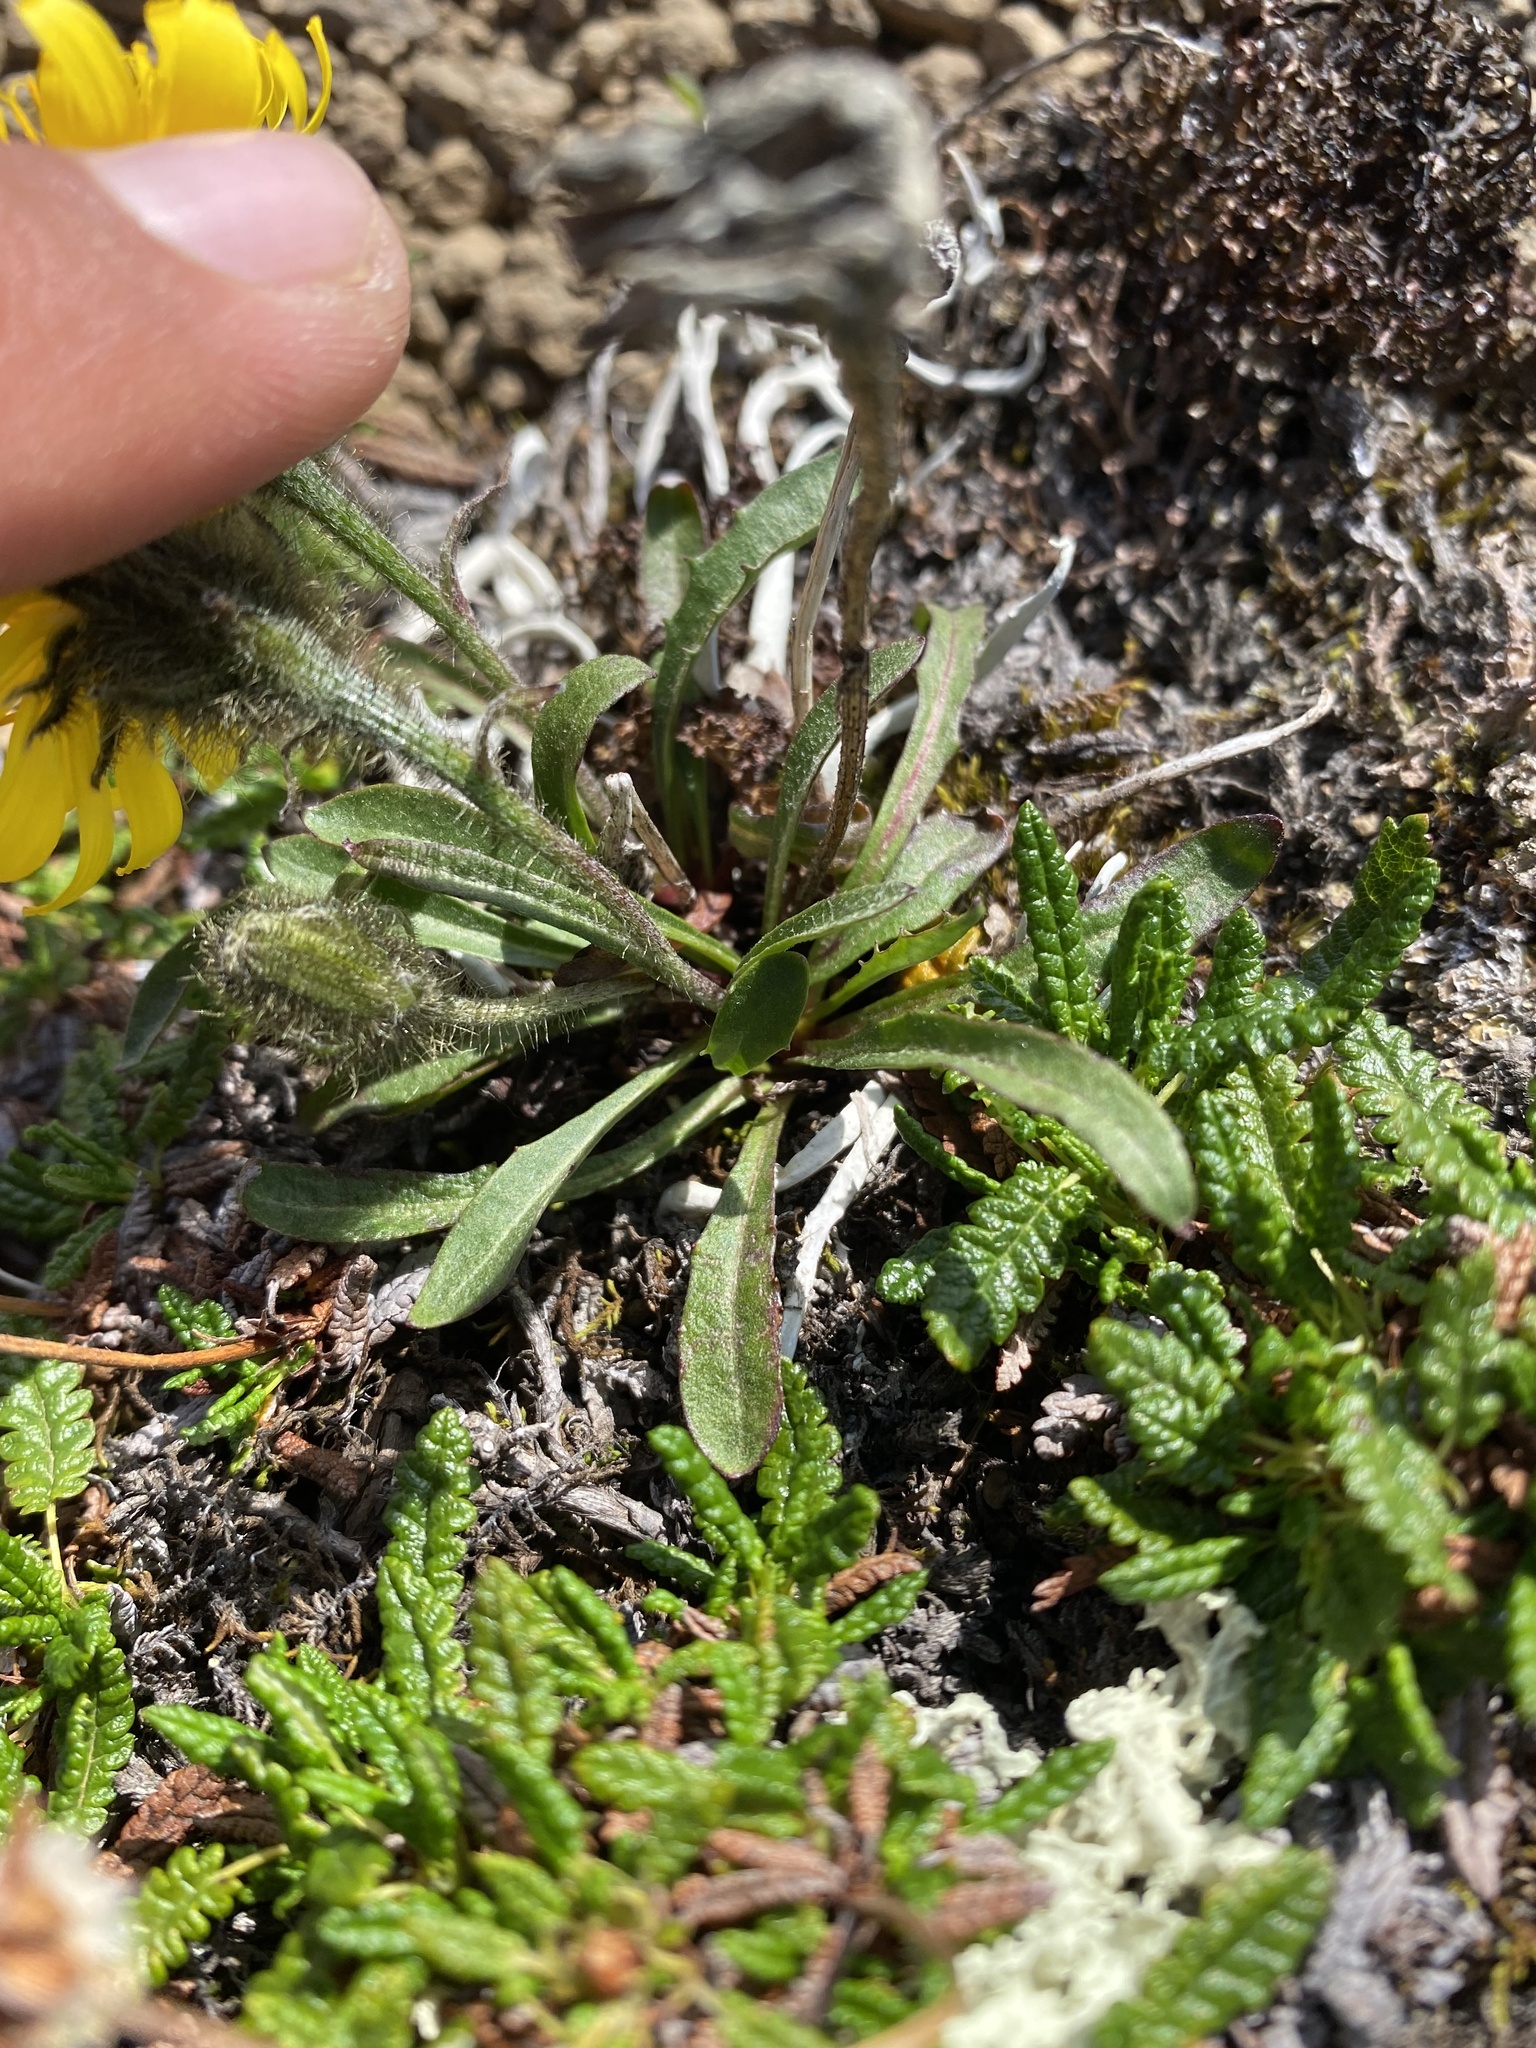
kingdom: Plantae
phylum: Tracheophyta
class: Magnoliopsida
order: Asterales
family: Asteraceae
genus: Crepis
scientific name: Crepis chrysantha
